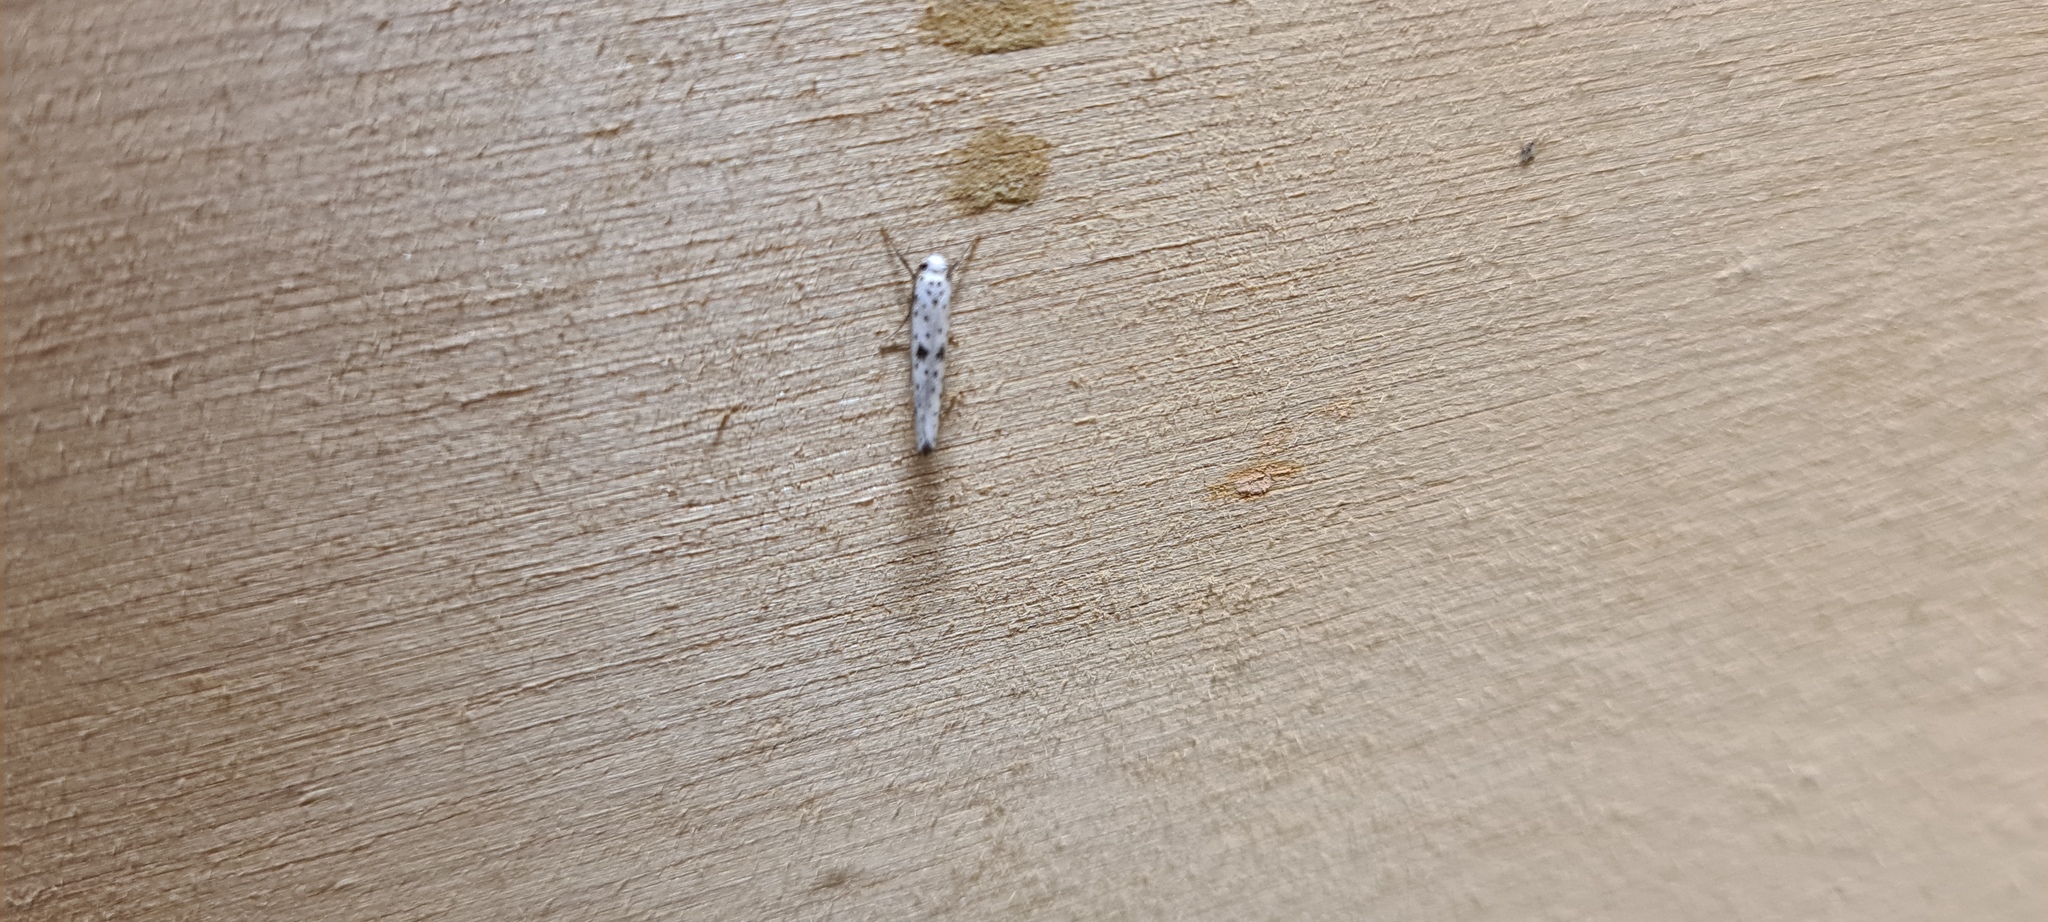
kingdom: Animalia
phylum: Arthropoda
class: Insecta
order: Lepidoptera
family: Yponomeutidae
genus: Yponomeuta
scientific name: Yponomeuta plumbella
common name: Black-tipped ermine
